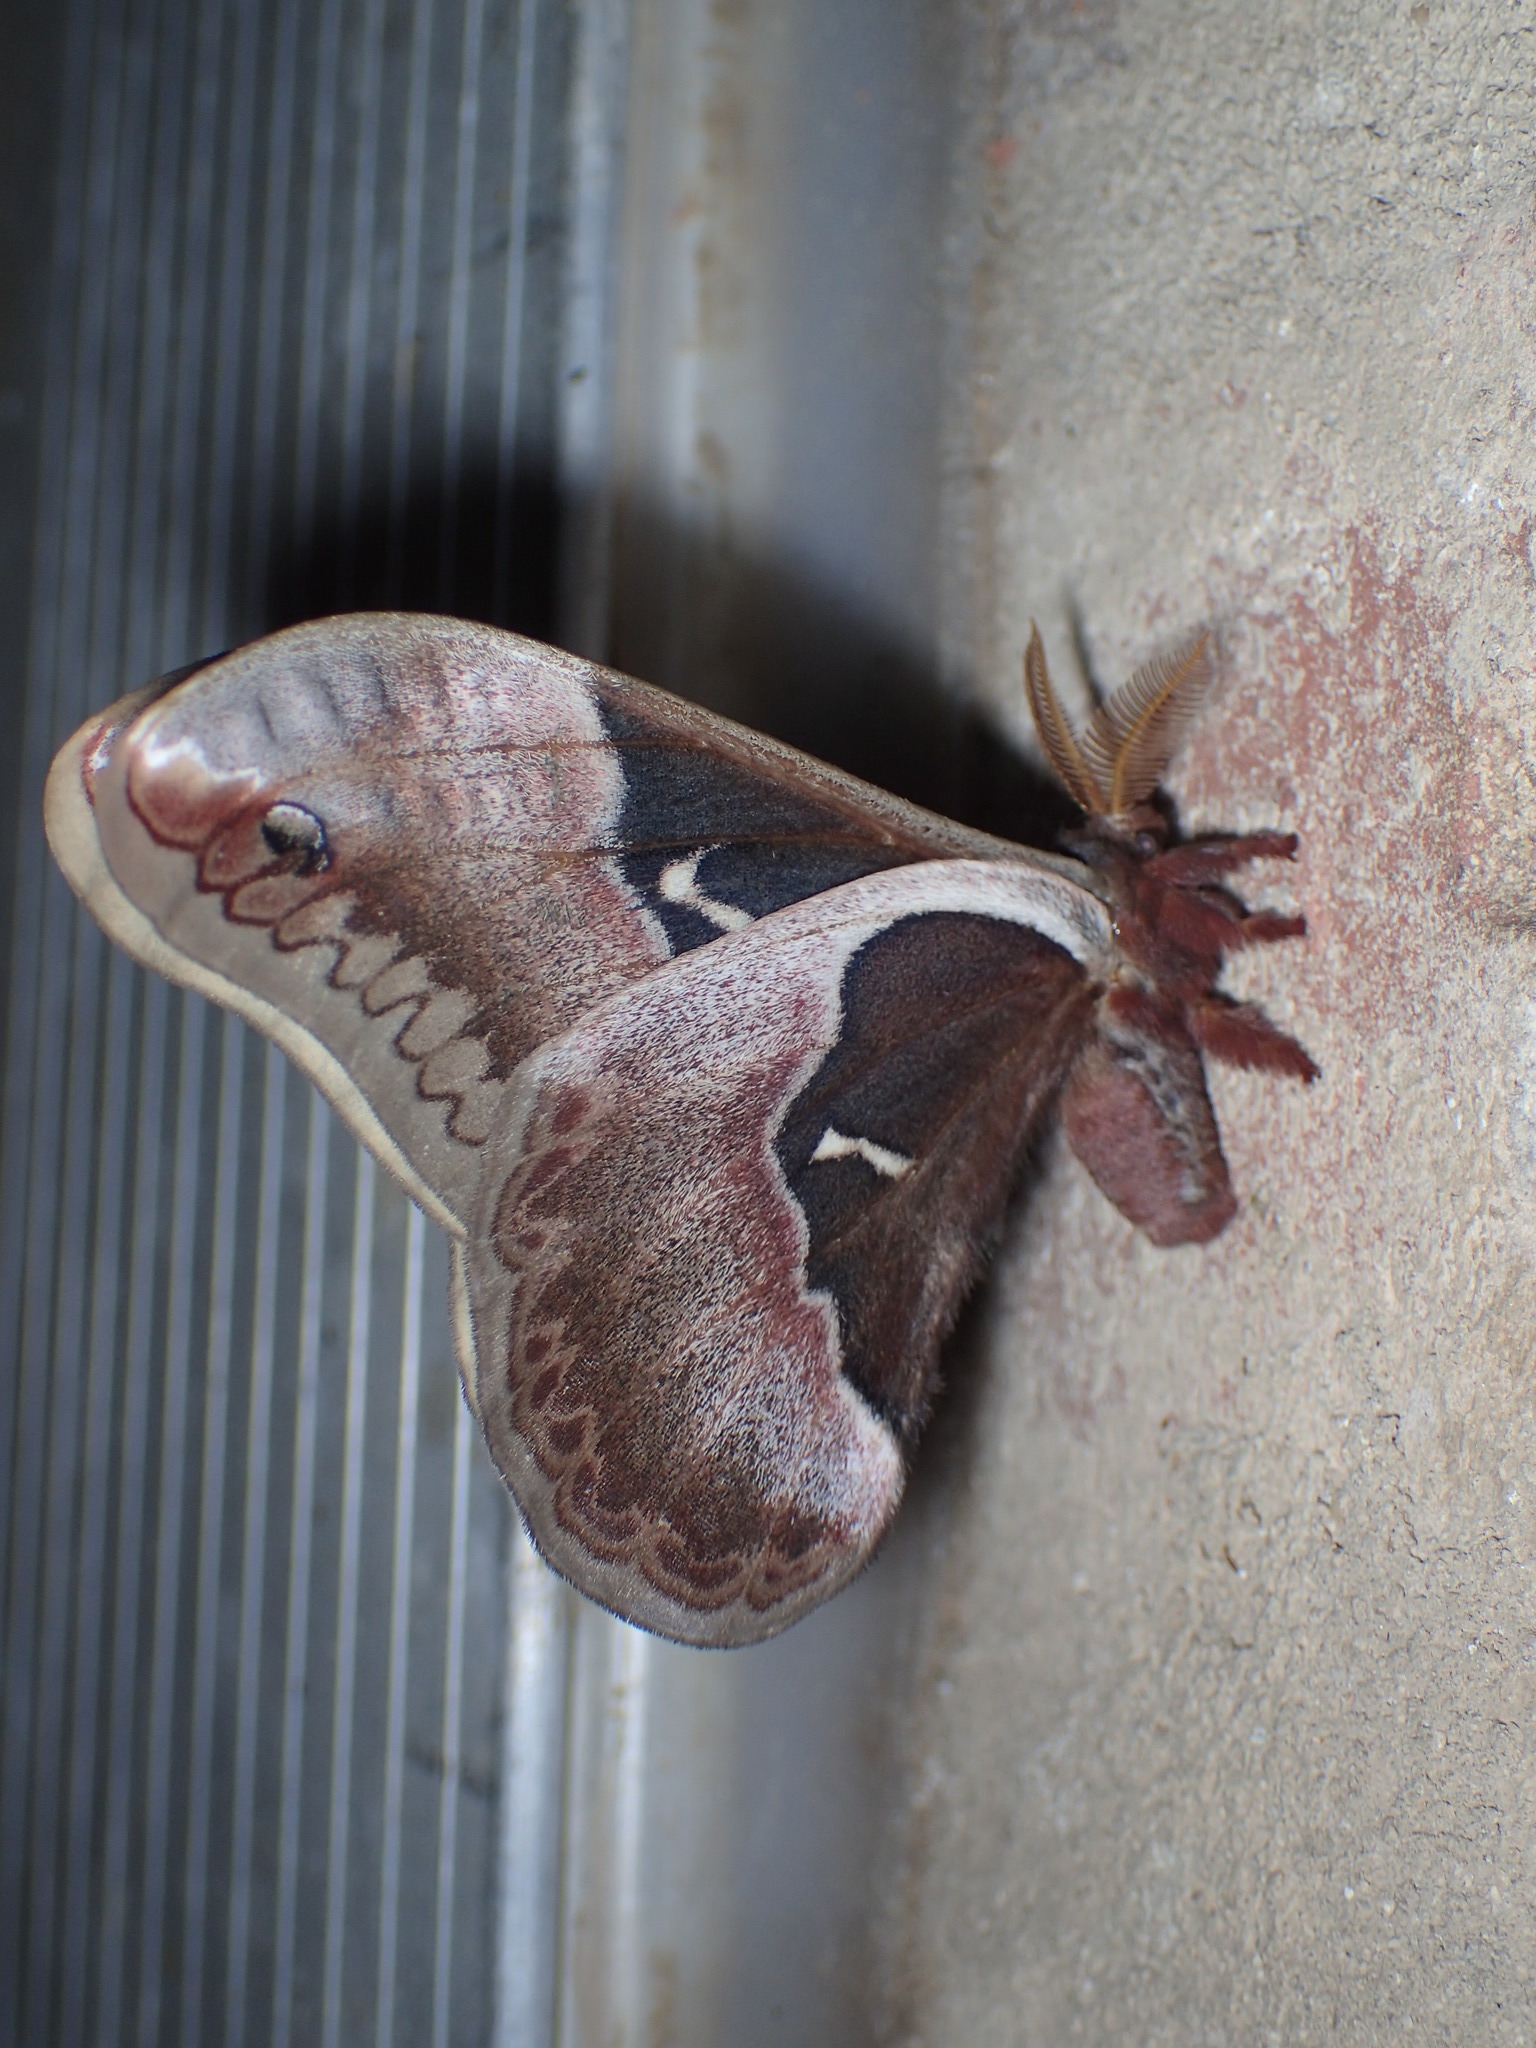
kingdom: Animalia
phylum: Arthropoda
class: Insecta
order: Lepidoptera
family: Saturniidae
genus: Callosamia
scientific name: Callosamia angulifera
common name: Tulip tree silkmoth
